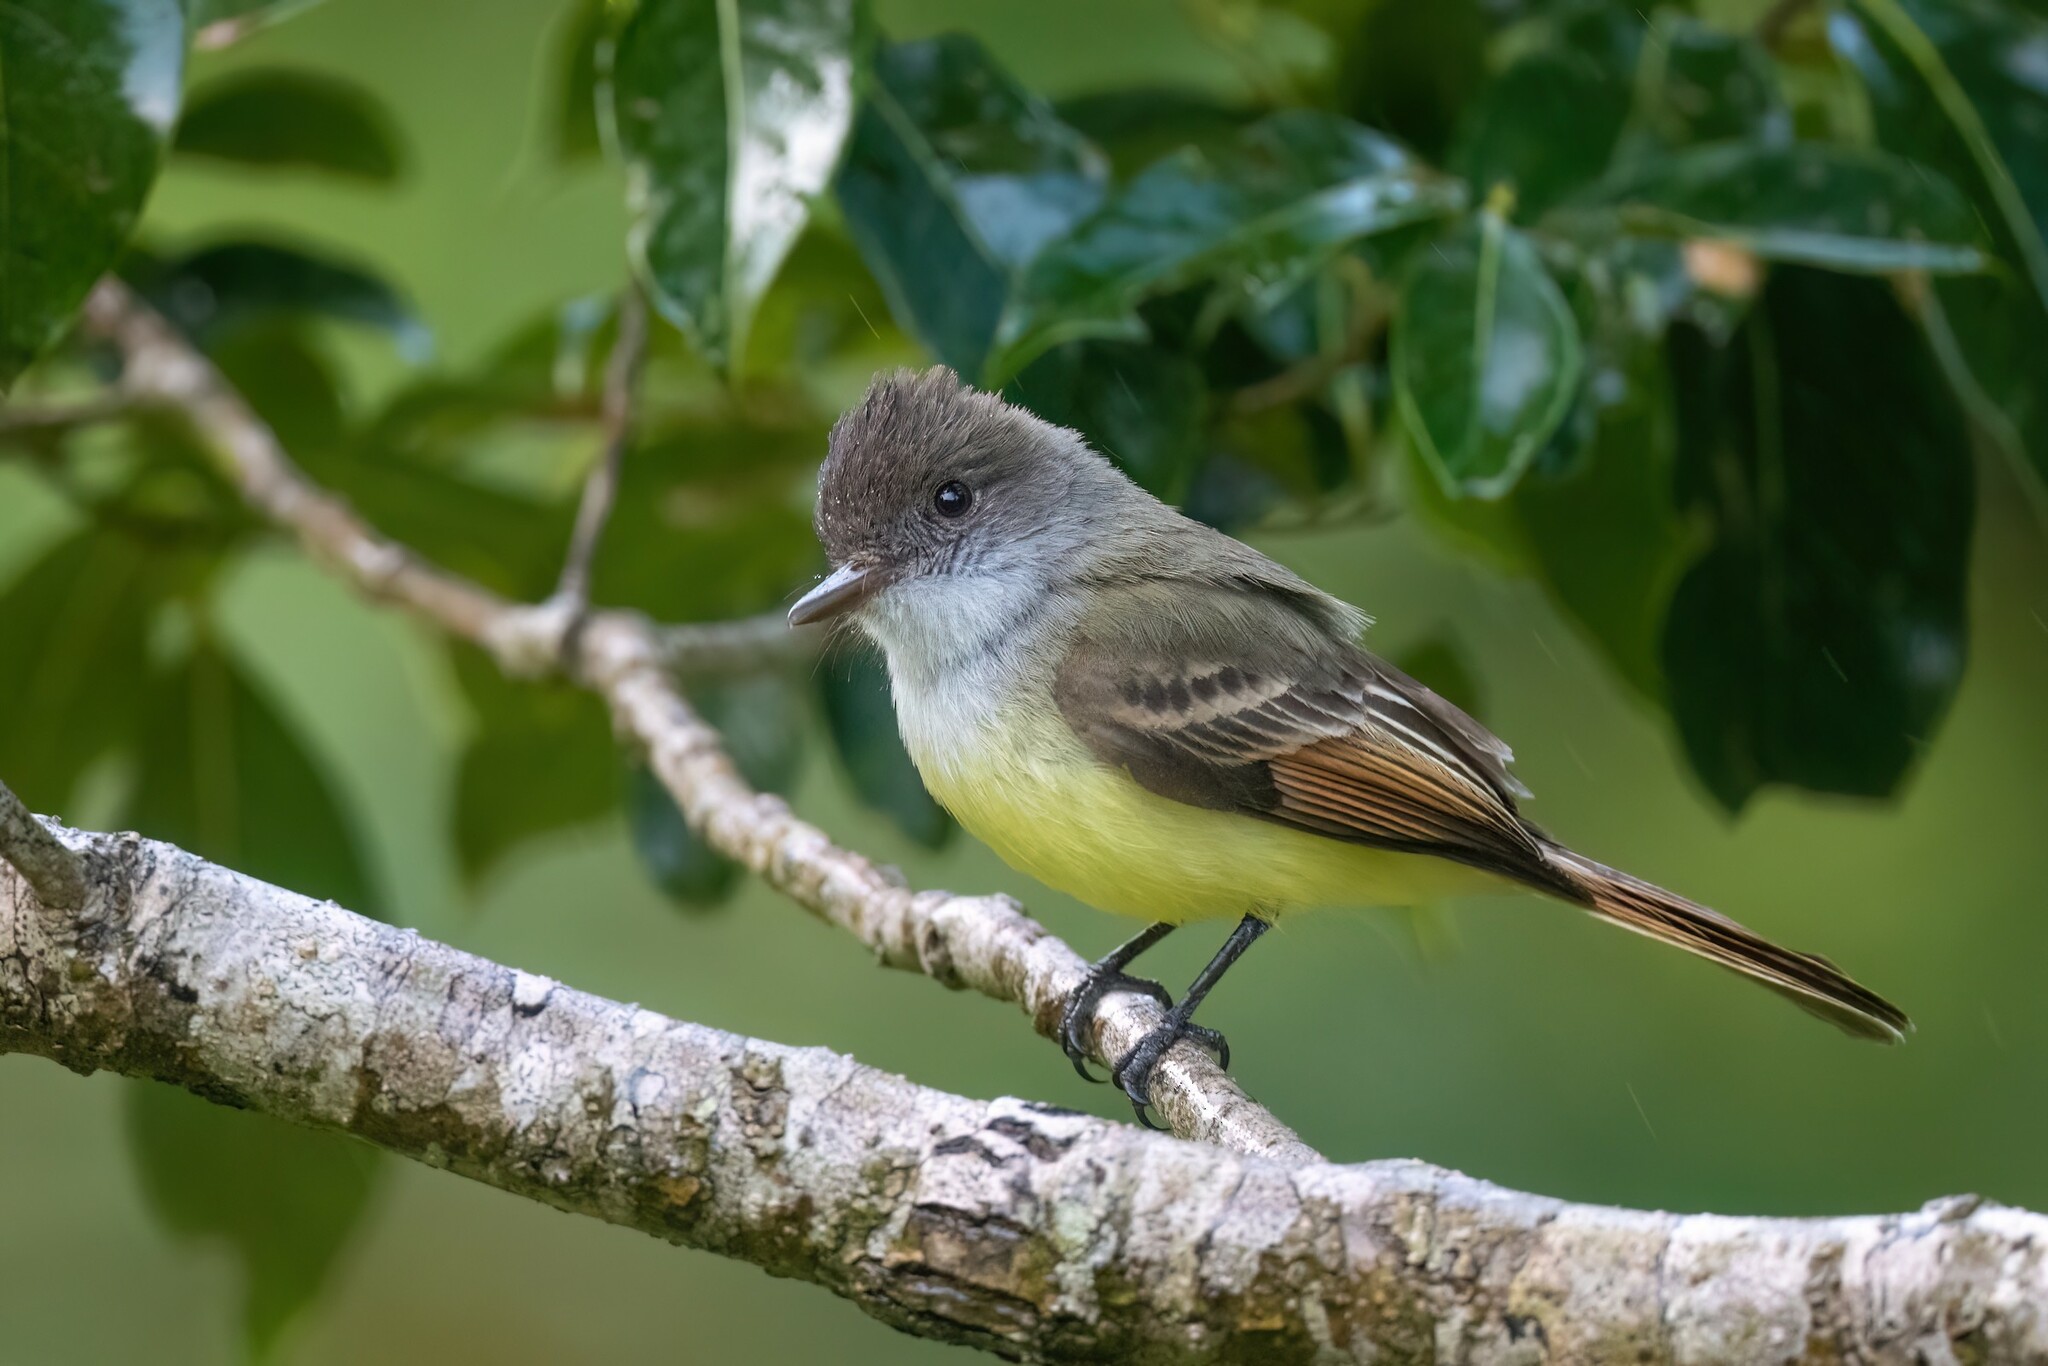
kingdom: Animalia
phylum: Chordata
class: Aves
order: Passeriformes
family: Tyrannidae
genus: Myiarchus
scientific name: Myiarchus tuberculifer
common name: Dusky-capped flycatcher
